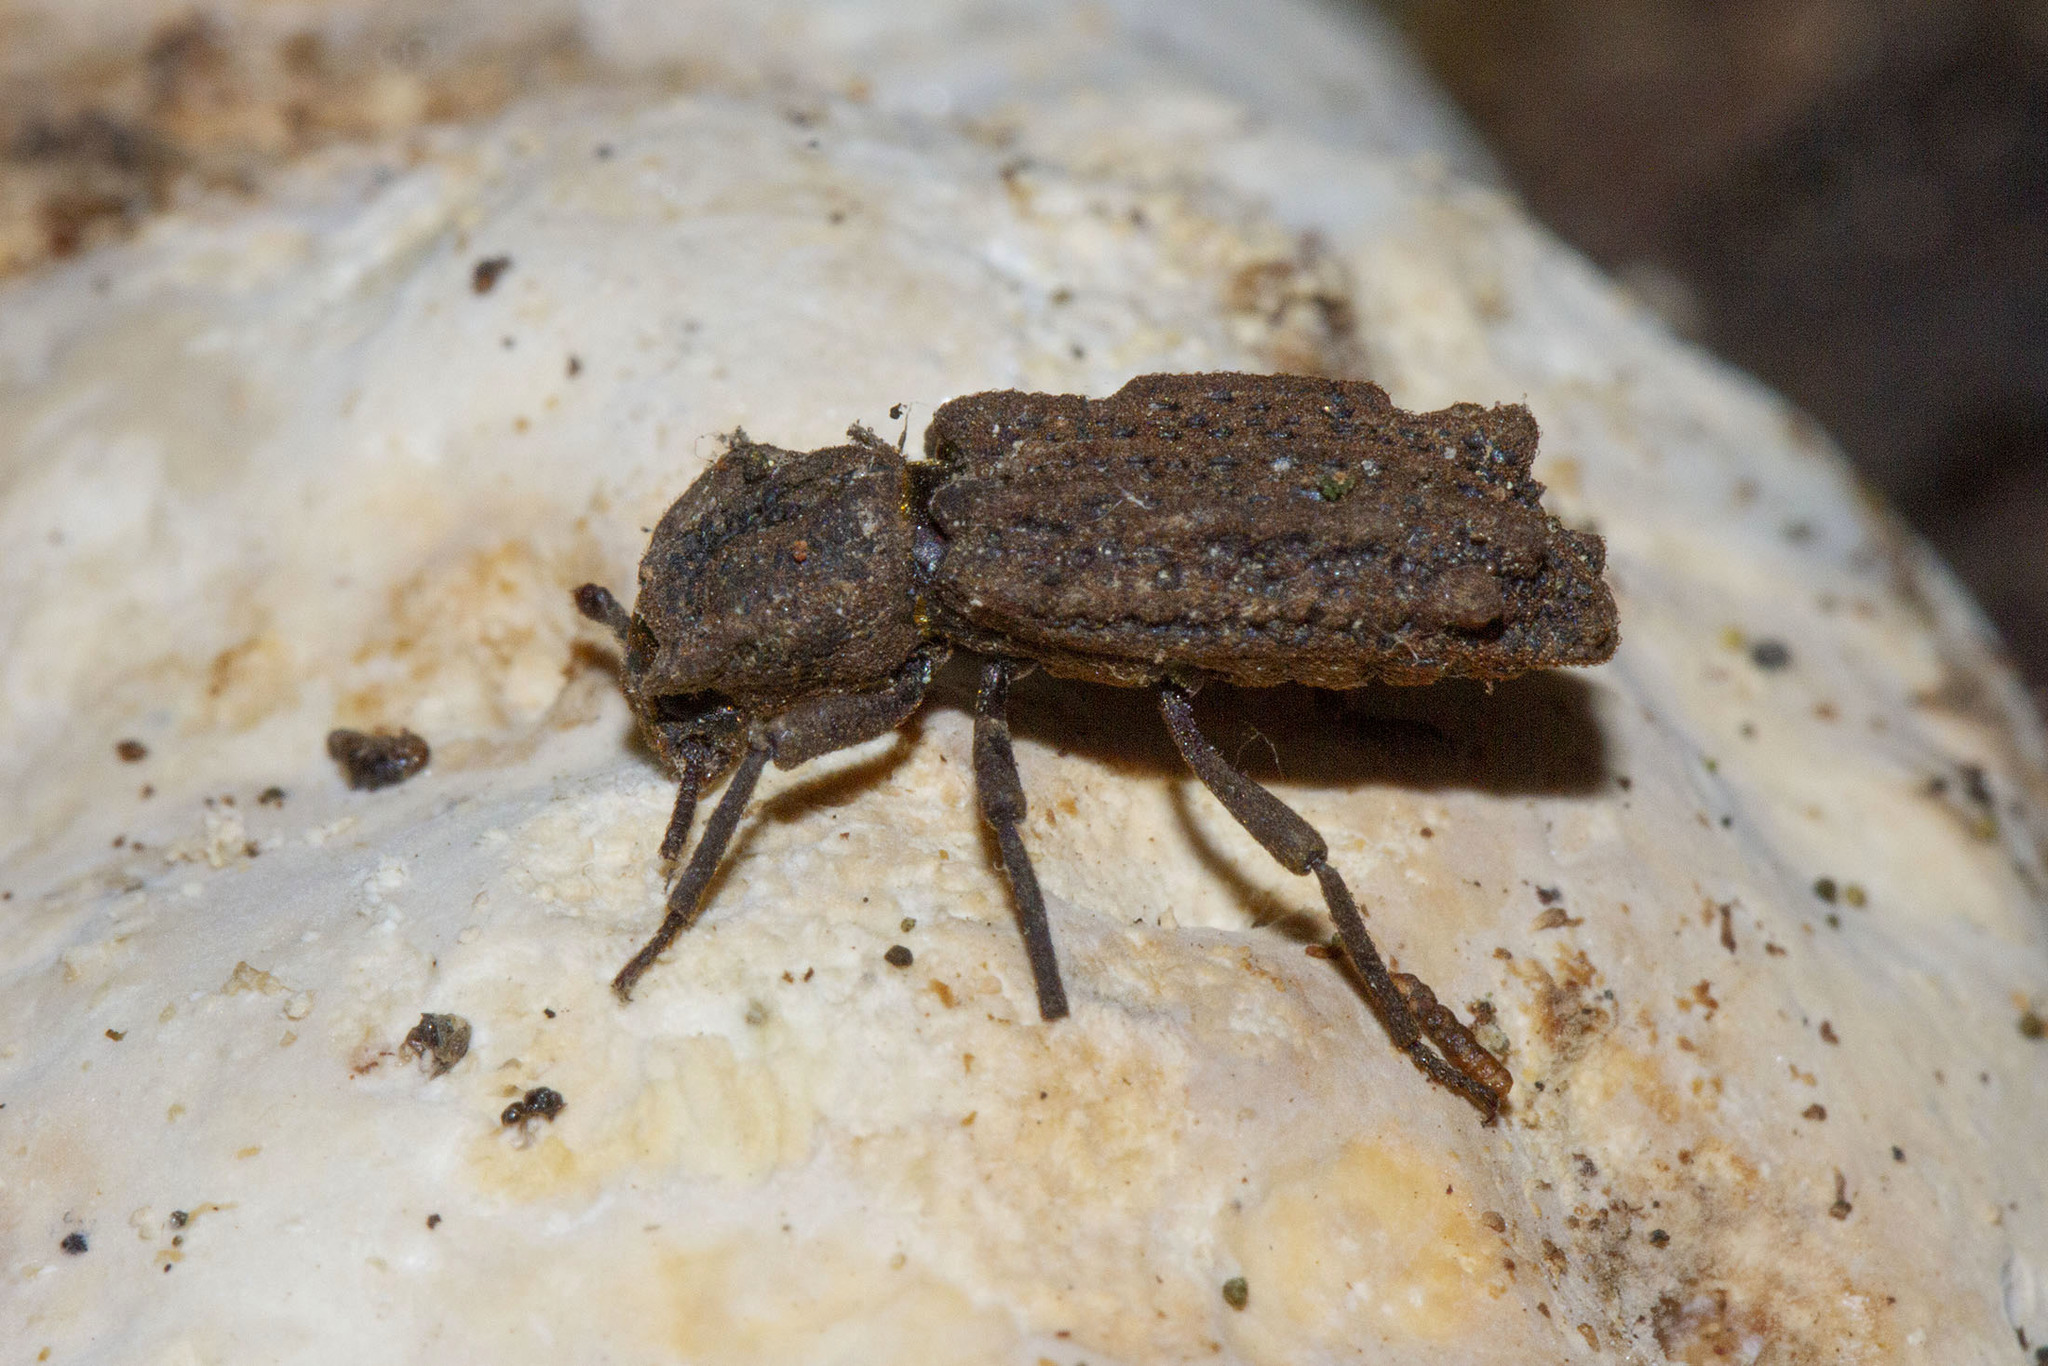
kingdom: Animalia
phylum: Arthropoda
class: Insecta
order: Coleoptera
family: Zopheridae
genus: Phellopsis
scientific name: Phellopsis obcordata
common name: Eastern ironclad beetle
